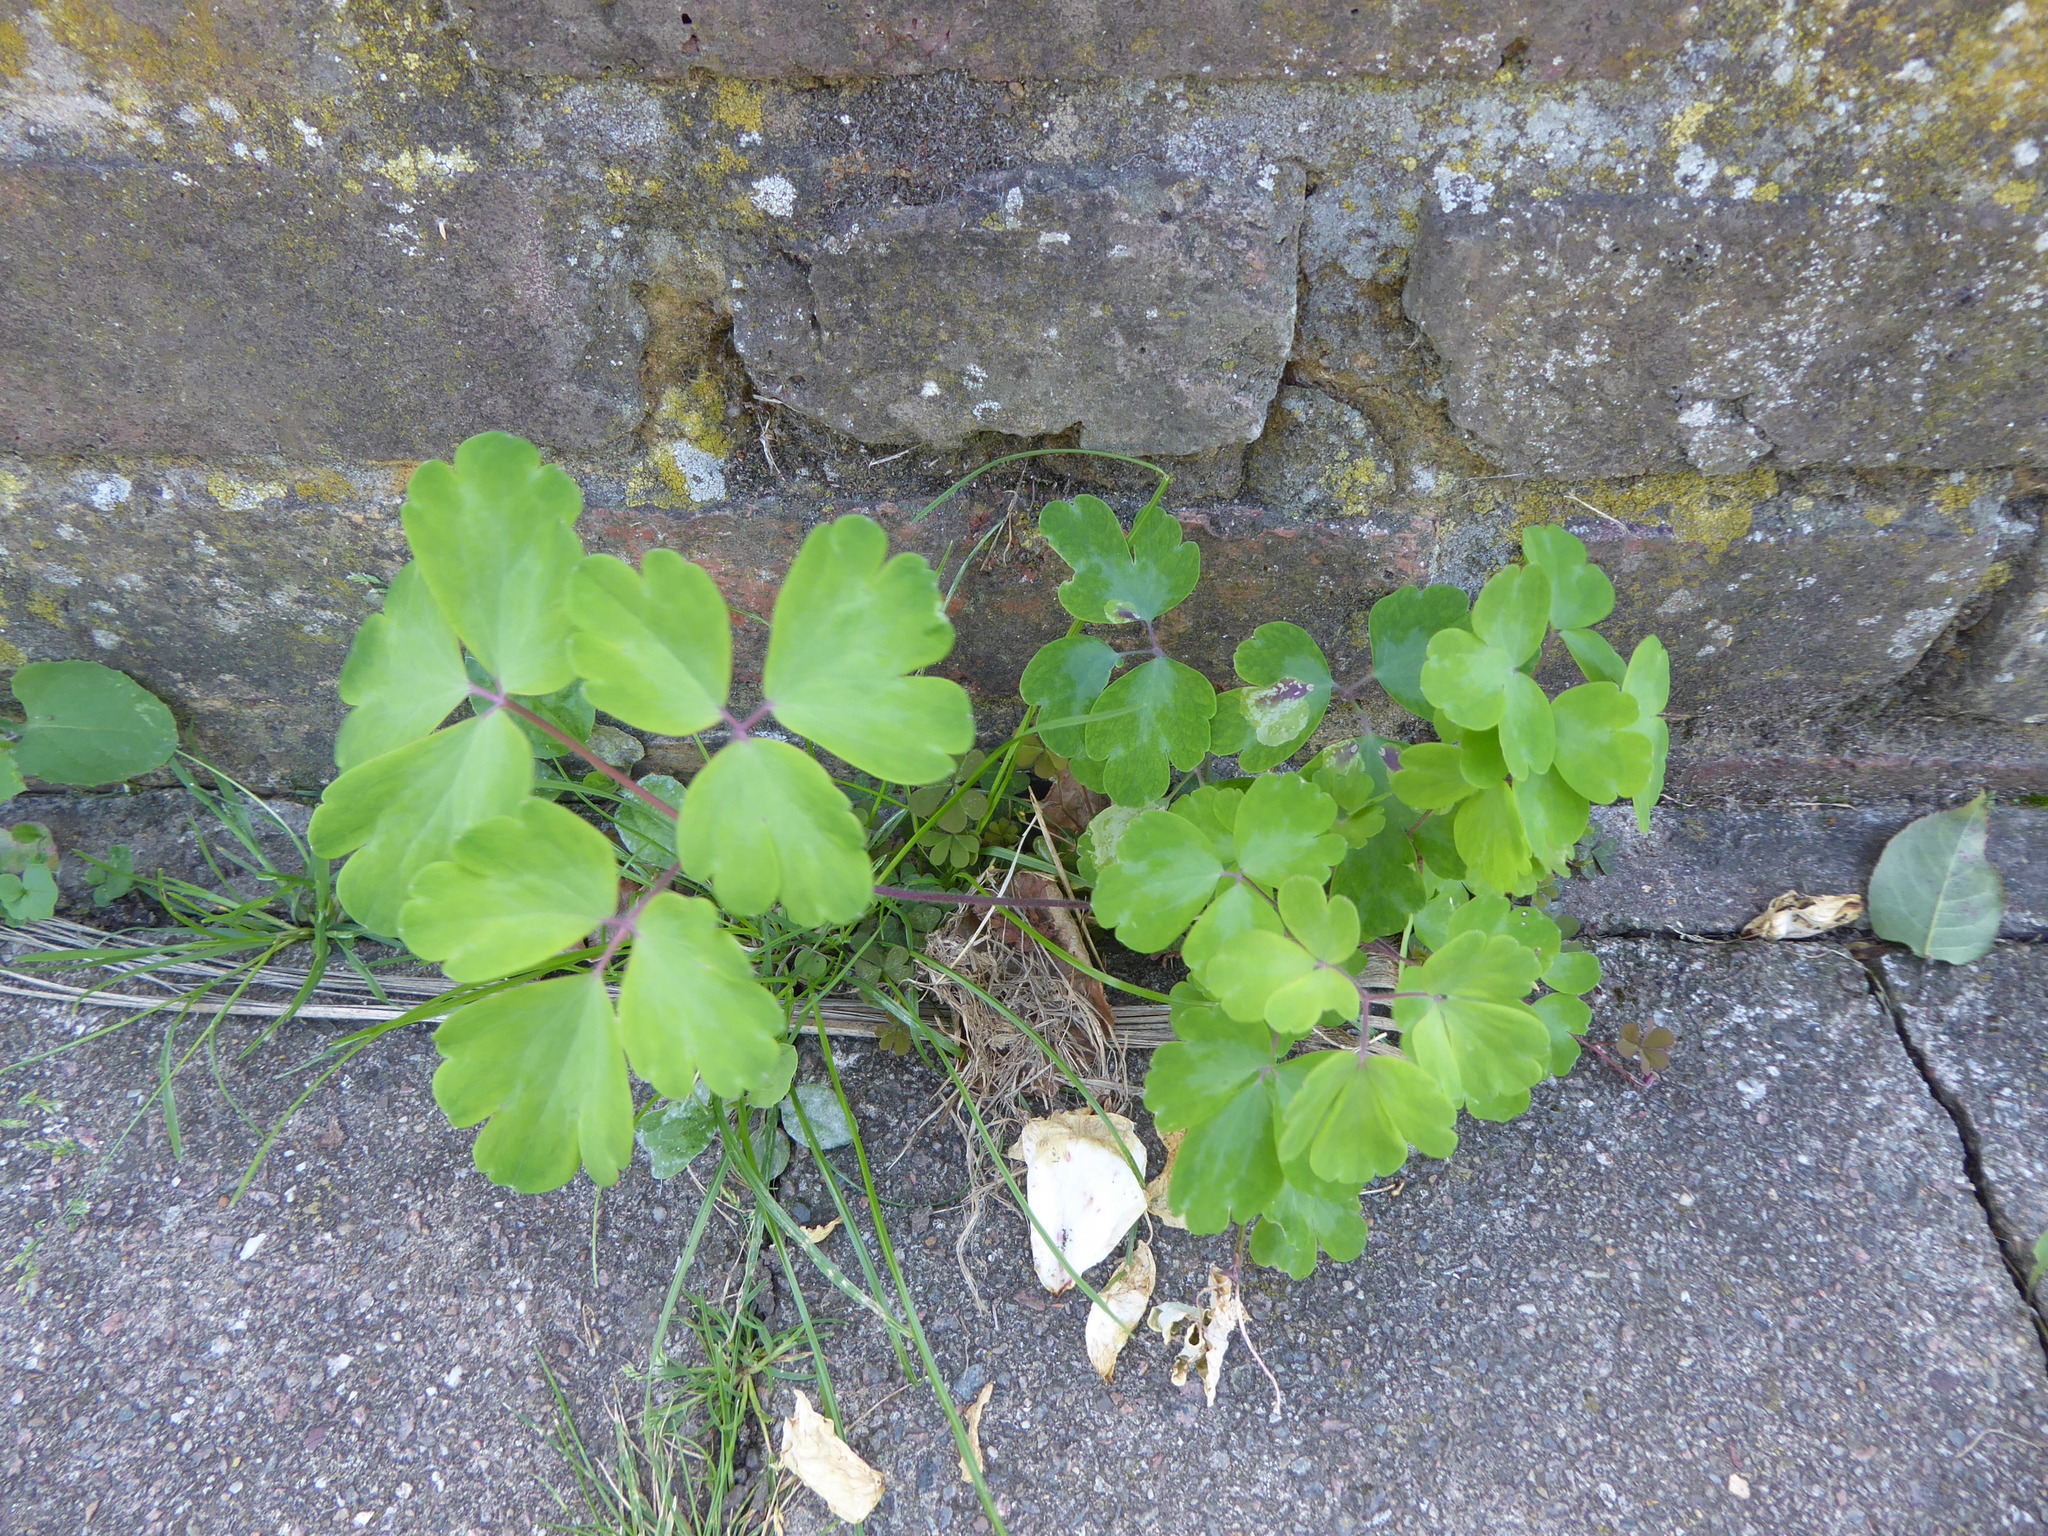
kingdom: Animalia
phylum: Arthropoda
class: Insecta
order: Diptera
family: Agromyzidae
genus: Phytomyza
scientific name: Phytomyza aquilegiae
